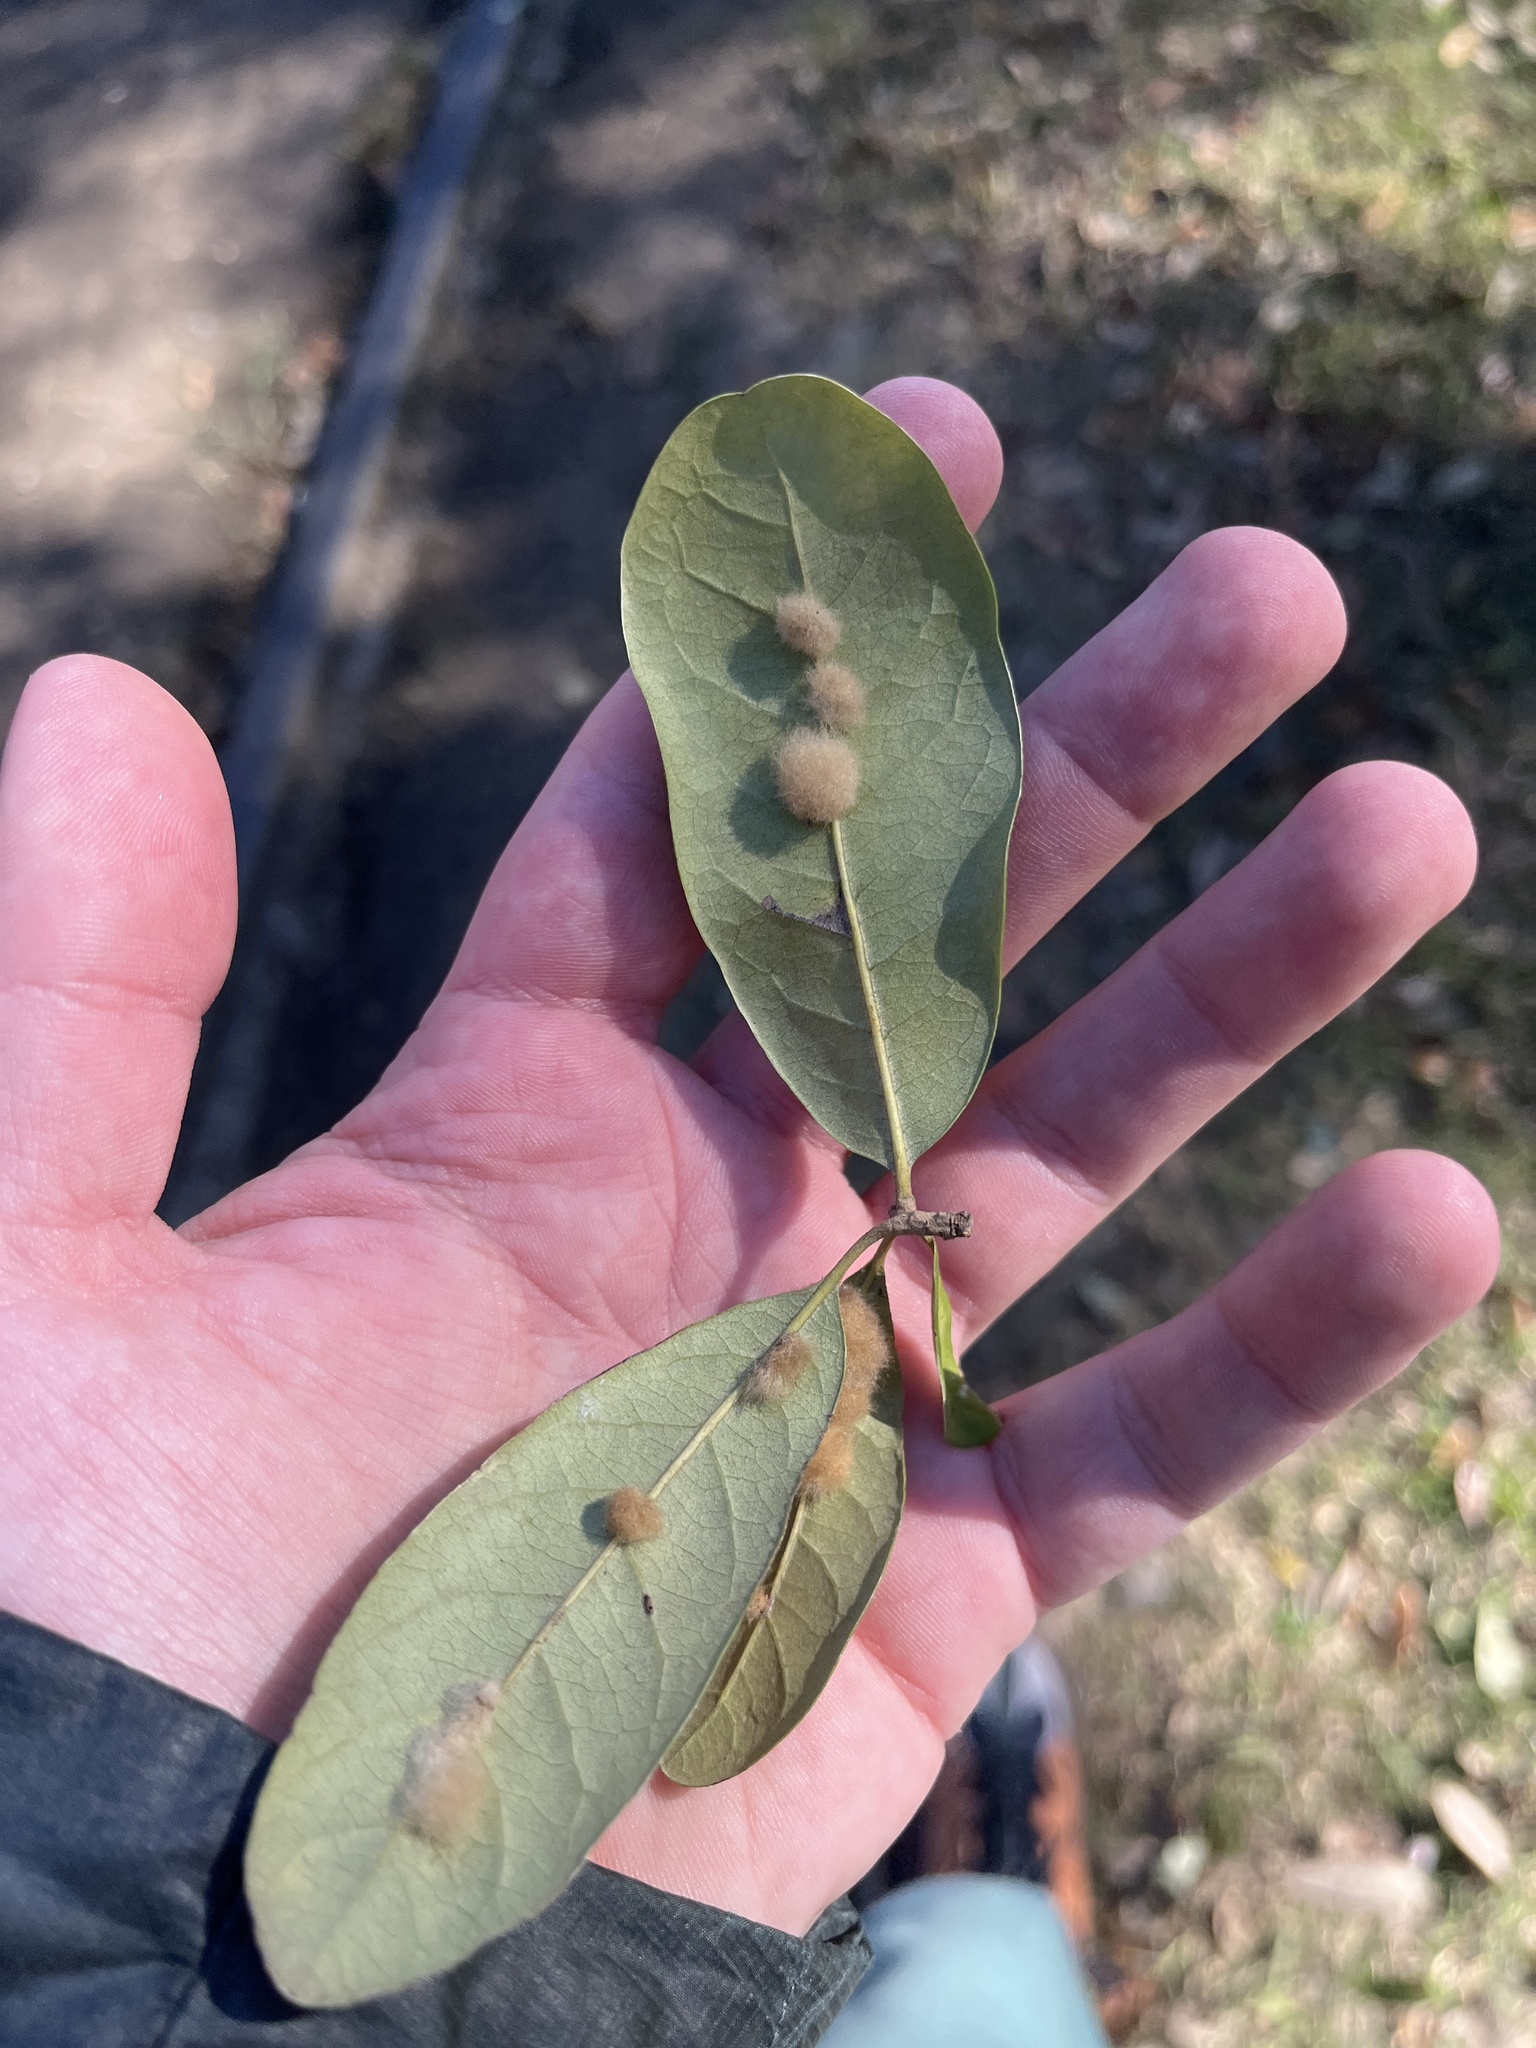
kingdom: Animalia
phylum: Arthropoda
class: Insecta
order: Hymenoptera
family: Cynipidae
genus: Andricus
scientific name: Andricus Druon quercuslanigerum
